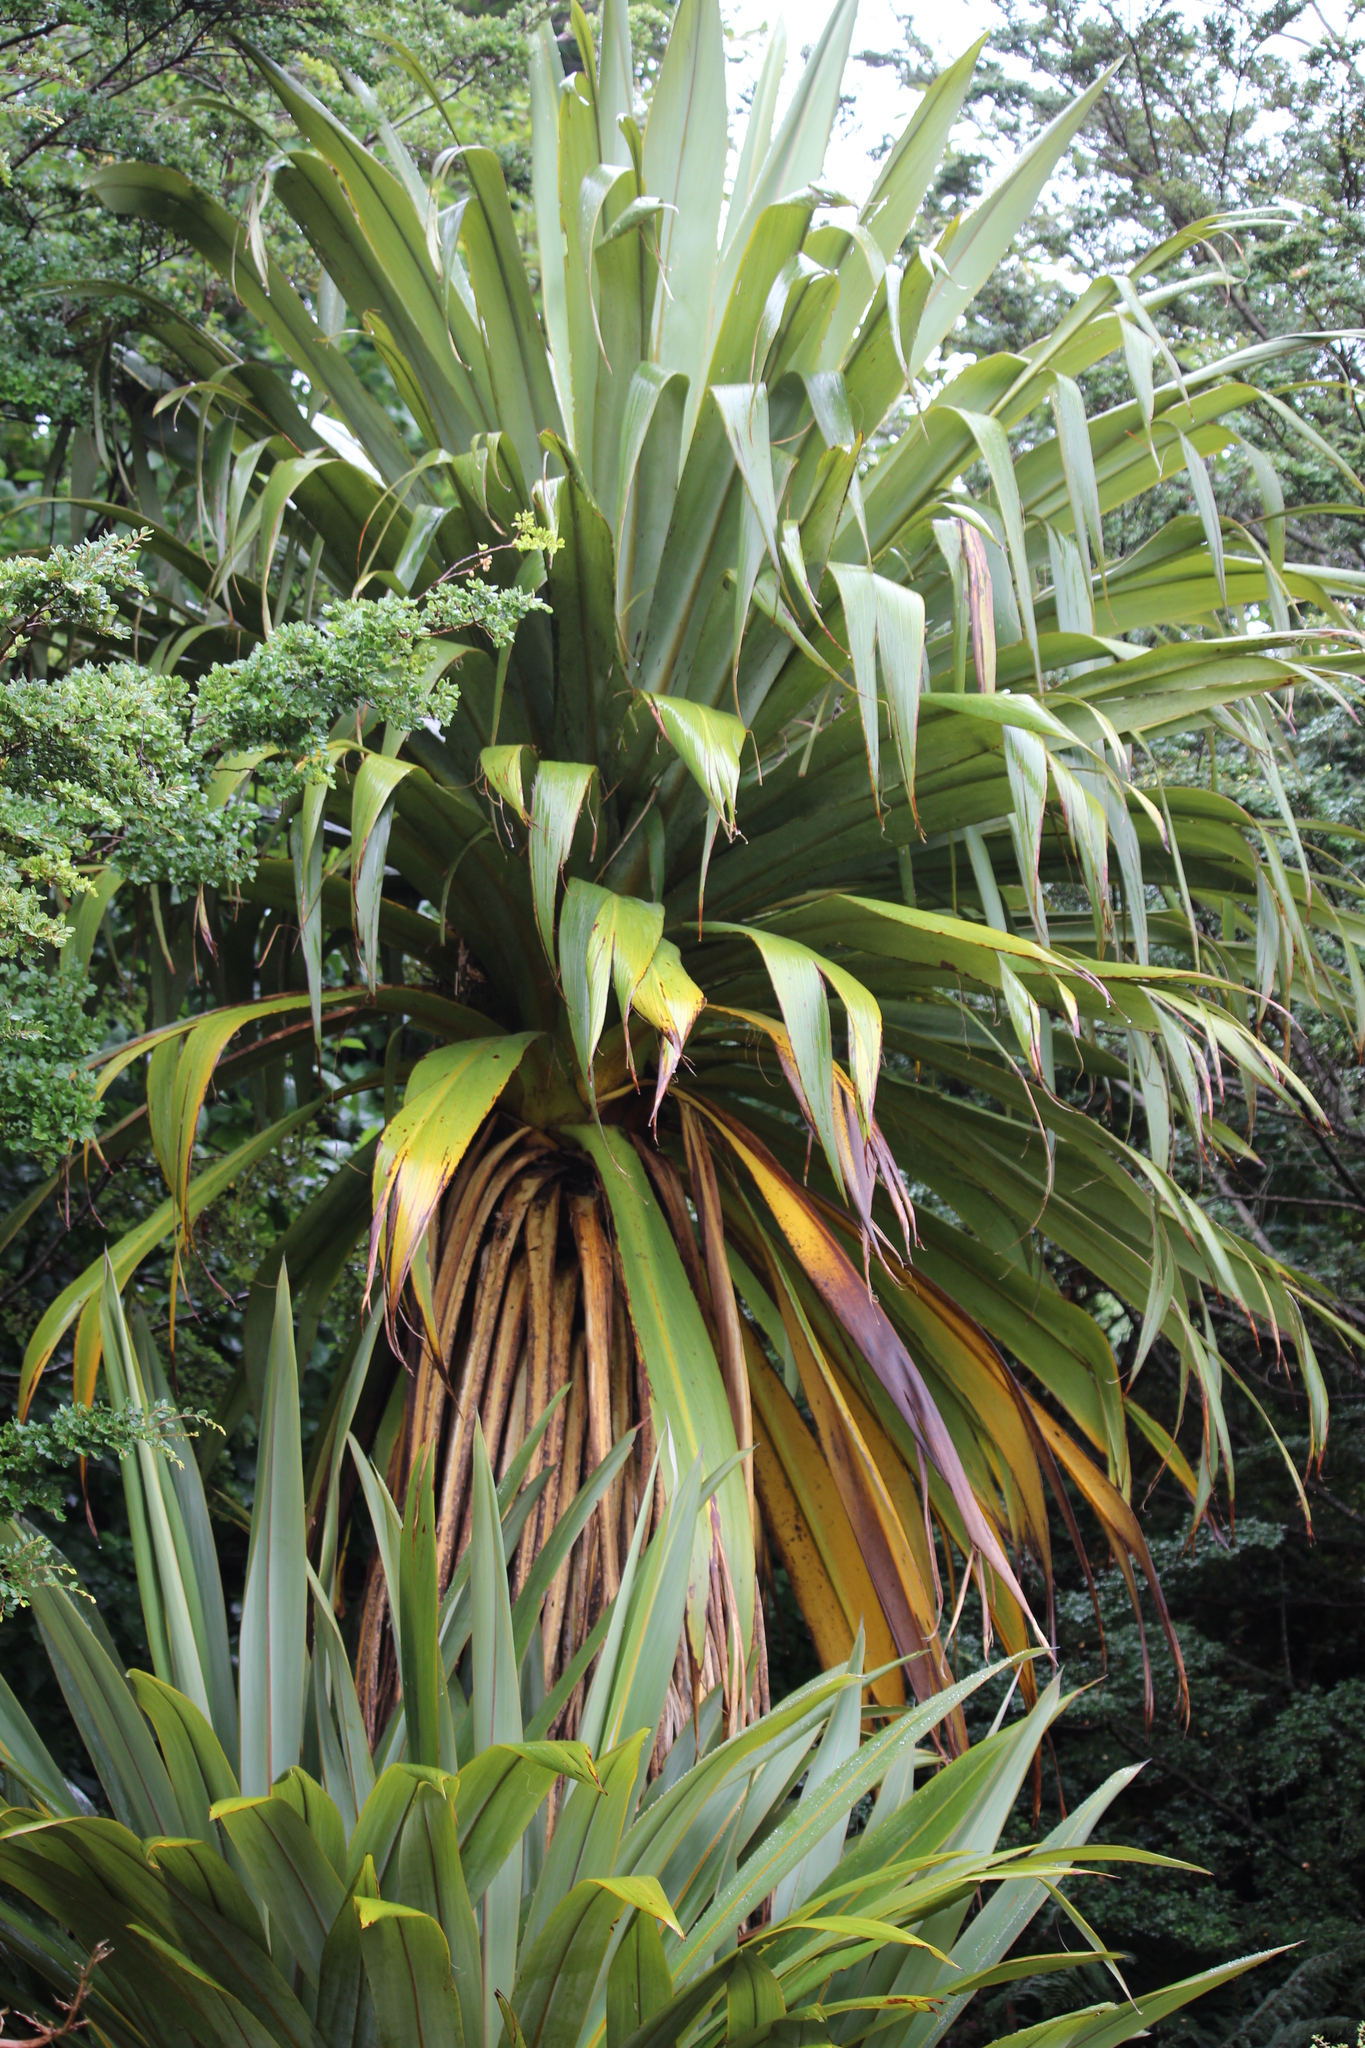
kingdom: Plantae
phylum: Tracheophyta
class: Liliopsida
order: Asparagales
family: Asparagaceae
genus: Cordyline
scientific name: Cordyline indivisa
